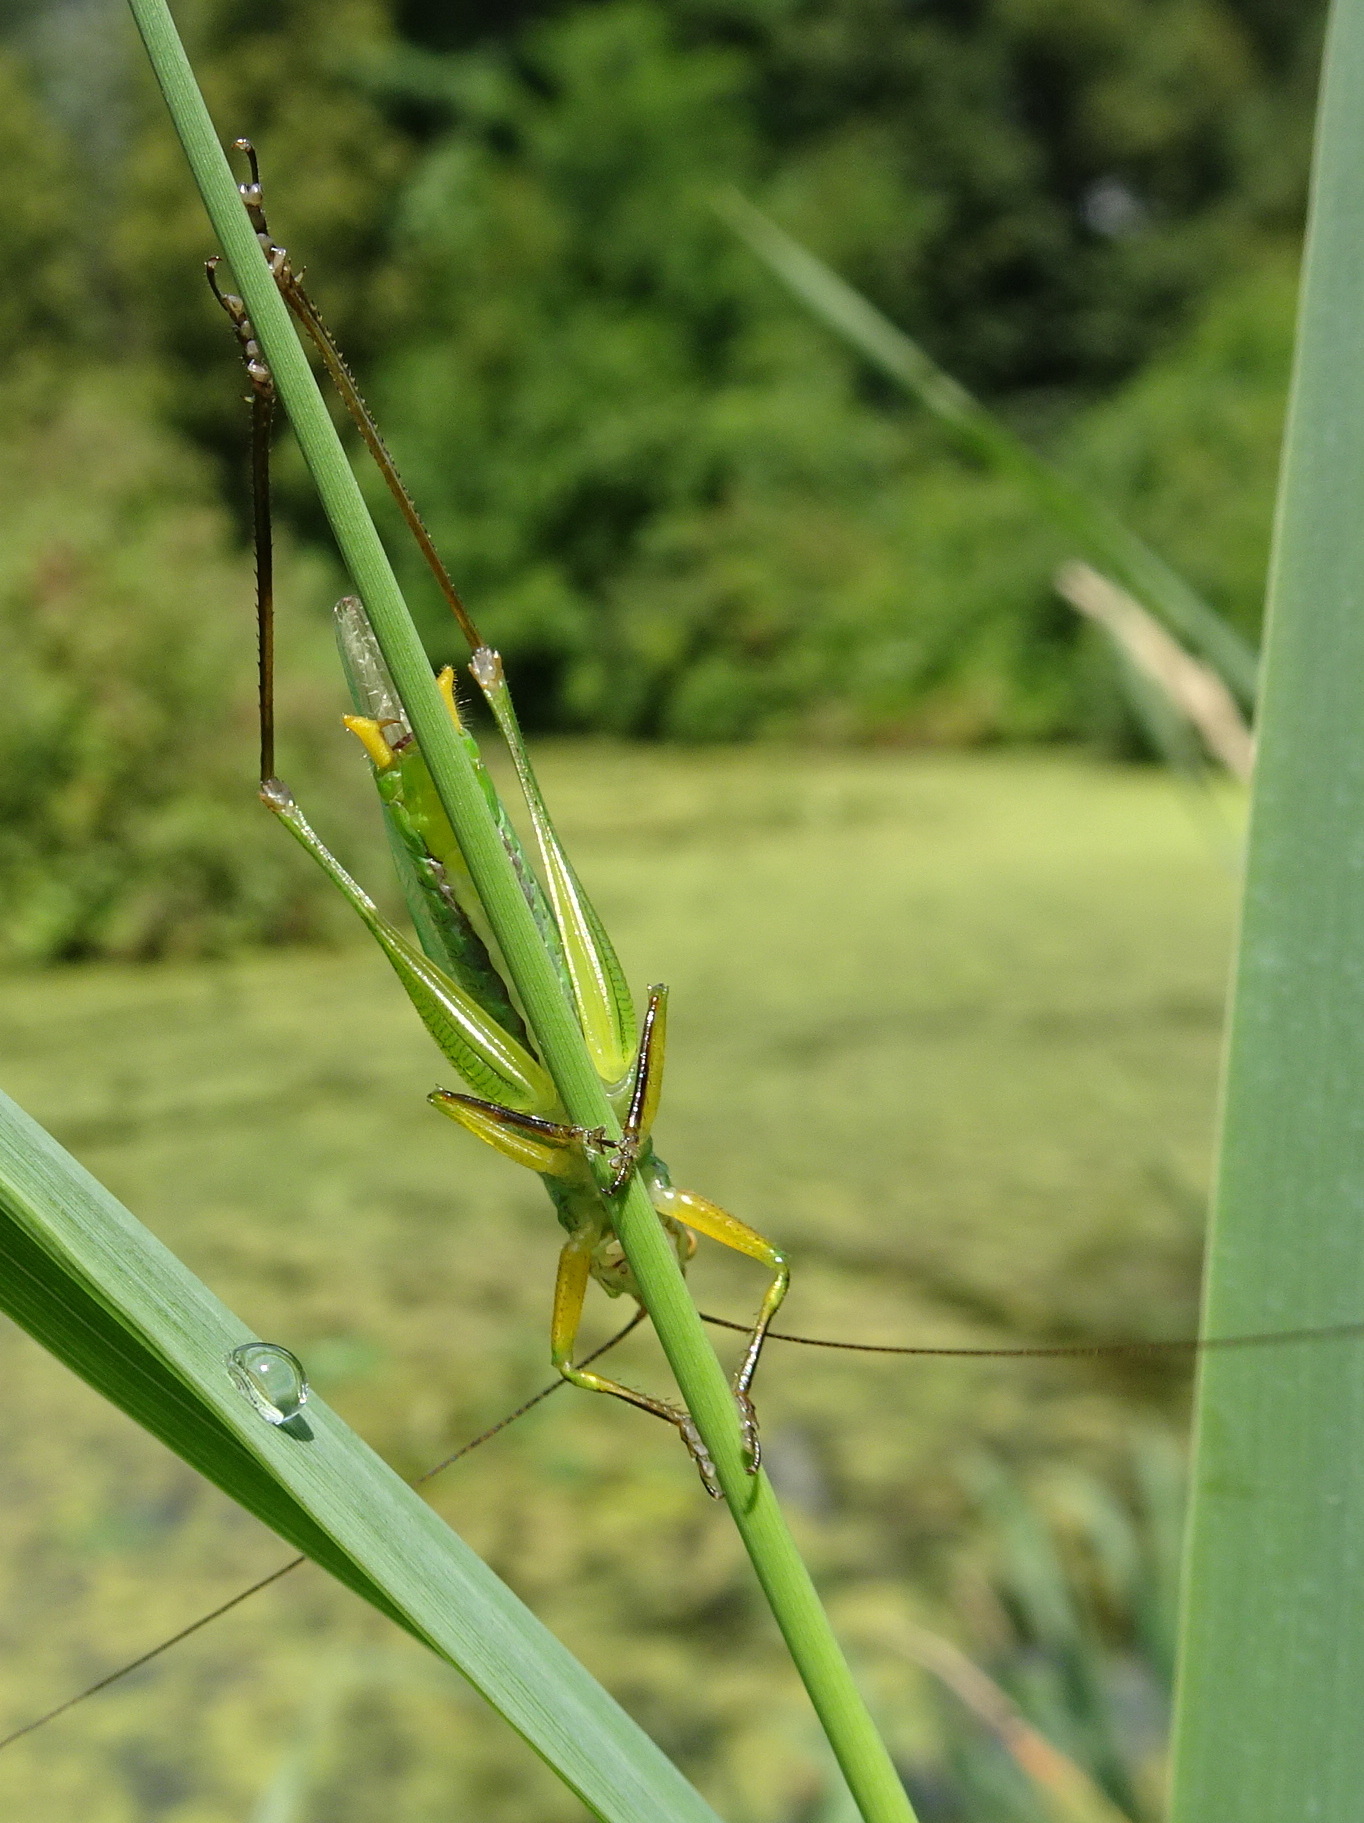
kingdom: Animalia
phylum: Arthropoda
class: Insecta
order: Orthoptera
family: Tettigoniidae
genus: Orchelimum
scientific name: Orchelimum nigripes
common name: Black-legged meadow katydid
